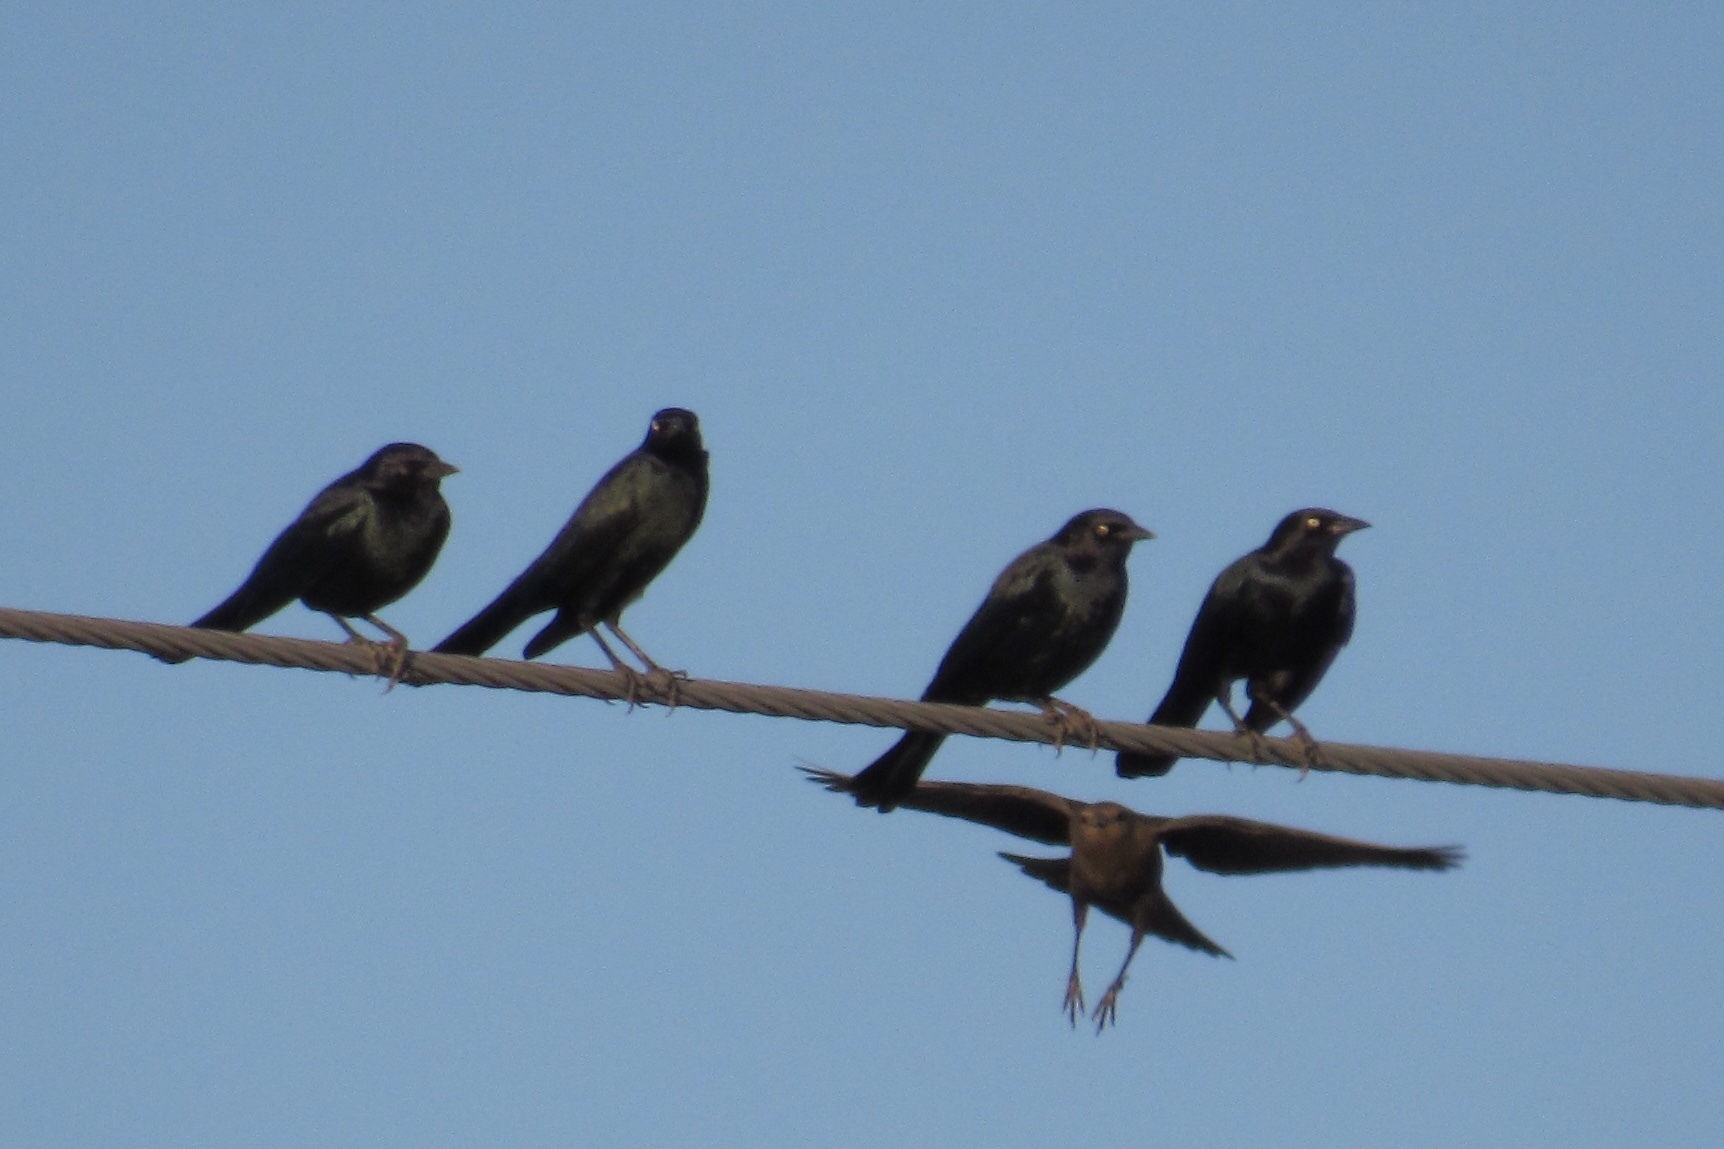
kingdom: Animalia
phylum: Chordata
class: Aves
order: Passeriformes
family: Icteridae
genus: Euphagus
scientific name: Euphagus cyanocephalus
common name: Brewer's blackbird
